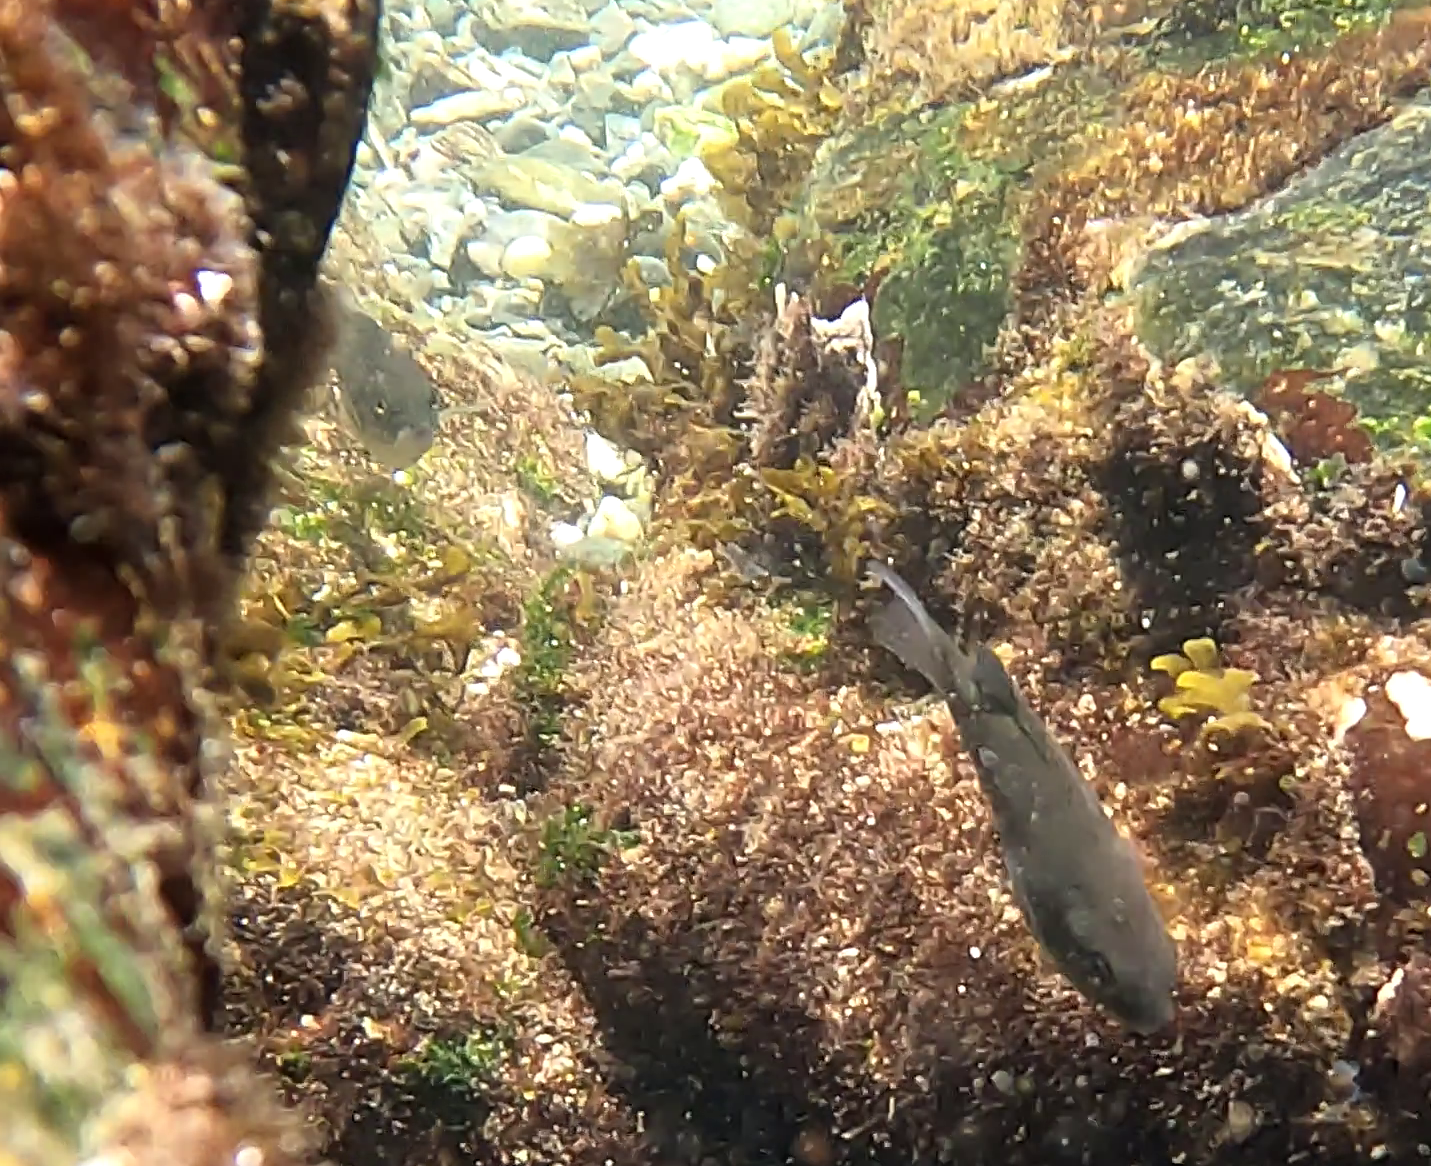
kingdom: Animalia
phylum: Chordata
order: Perciformes
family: Kyphosidae
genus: Girella
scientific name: Girella laevifrons
